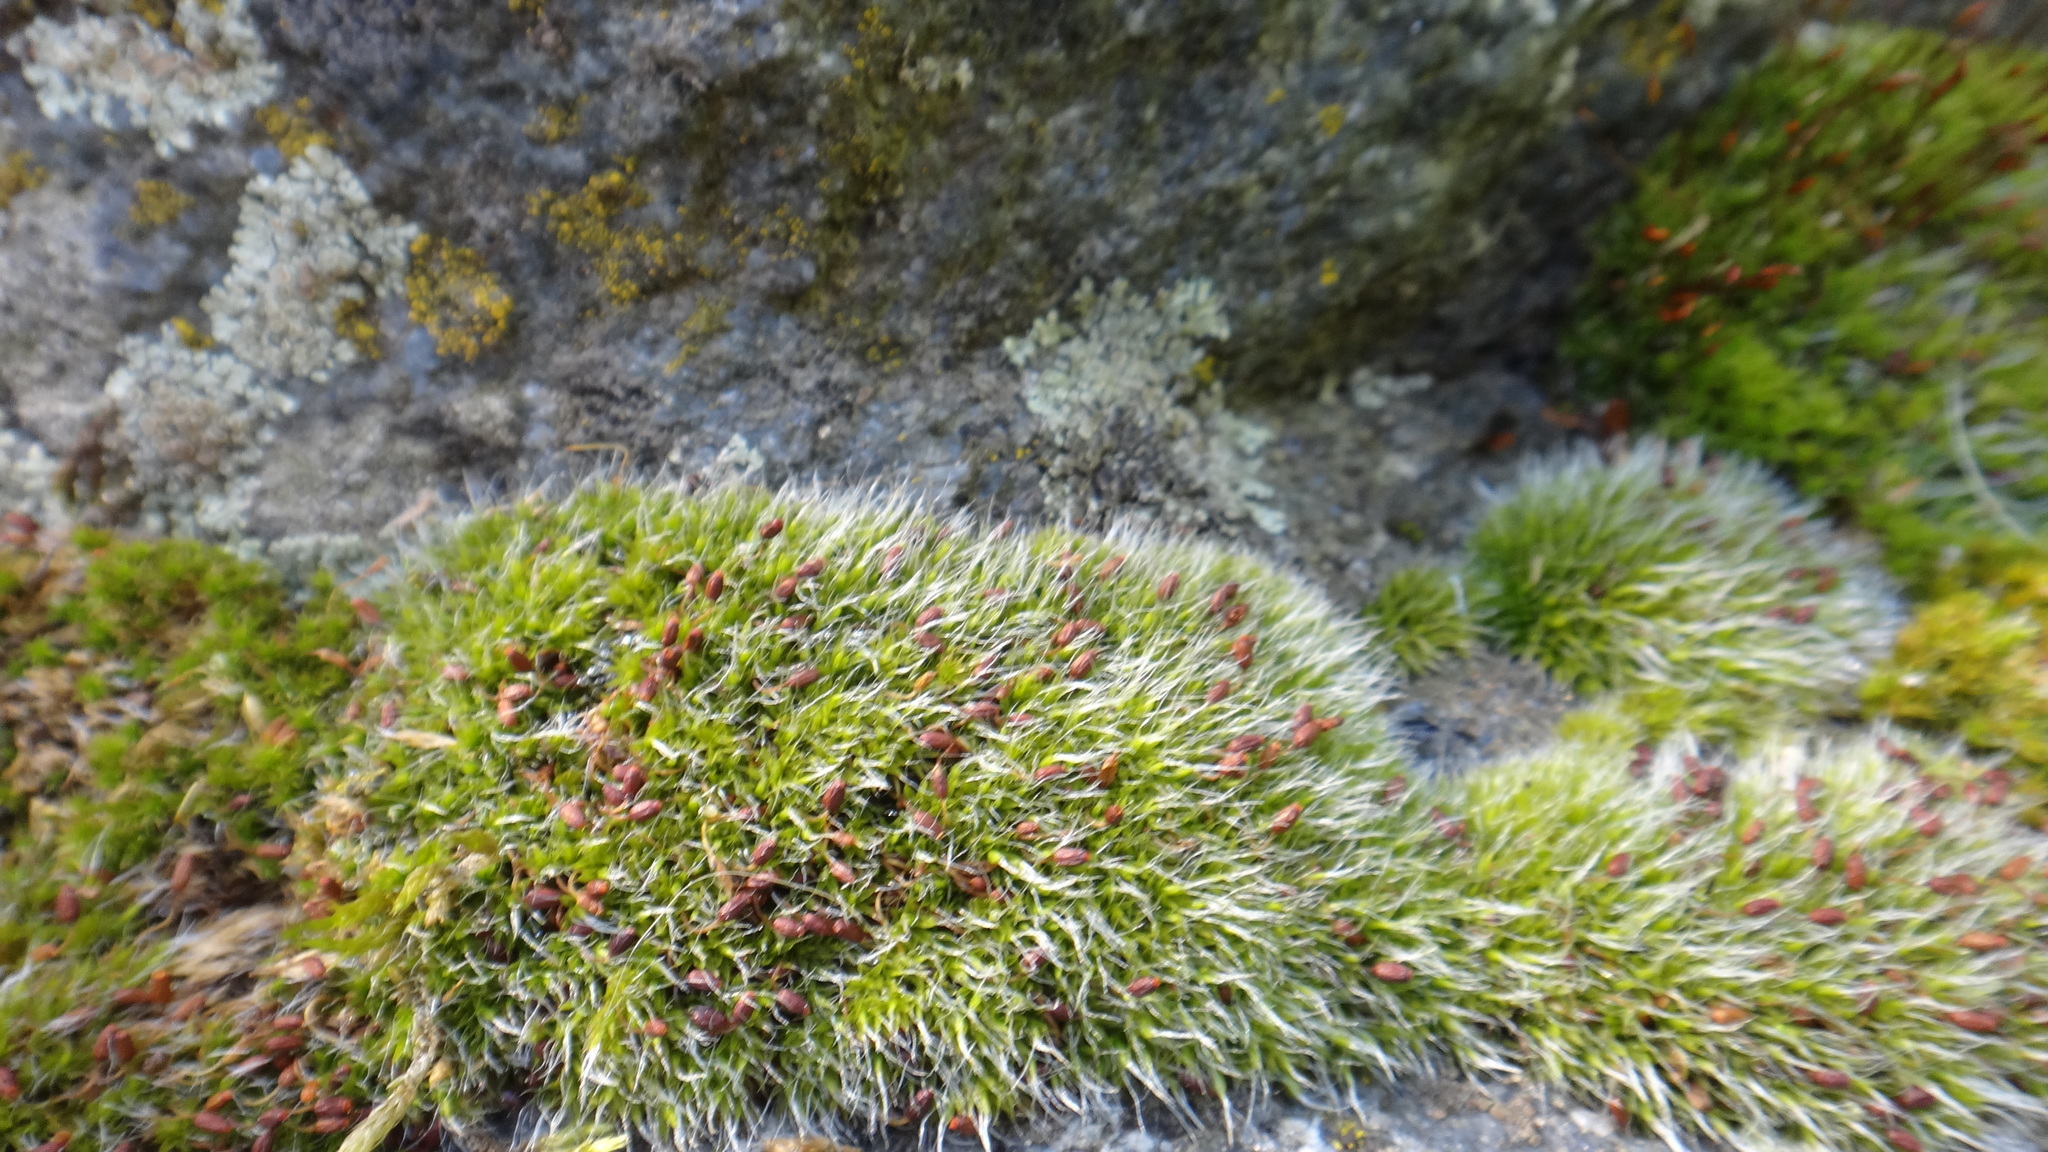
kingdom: Plantae
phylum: Bryophyta
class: Bryopsida
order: Grimmiales
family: Grimmiaceae
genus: Grimmia
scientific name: Grimmia pulvinata
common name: Grey-cushioned grimmia
